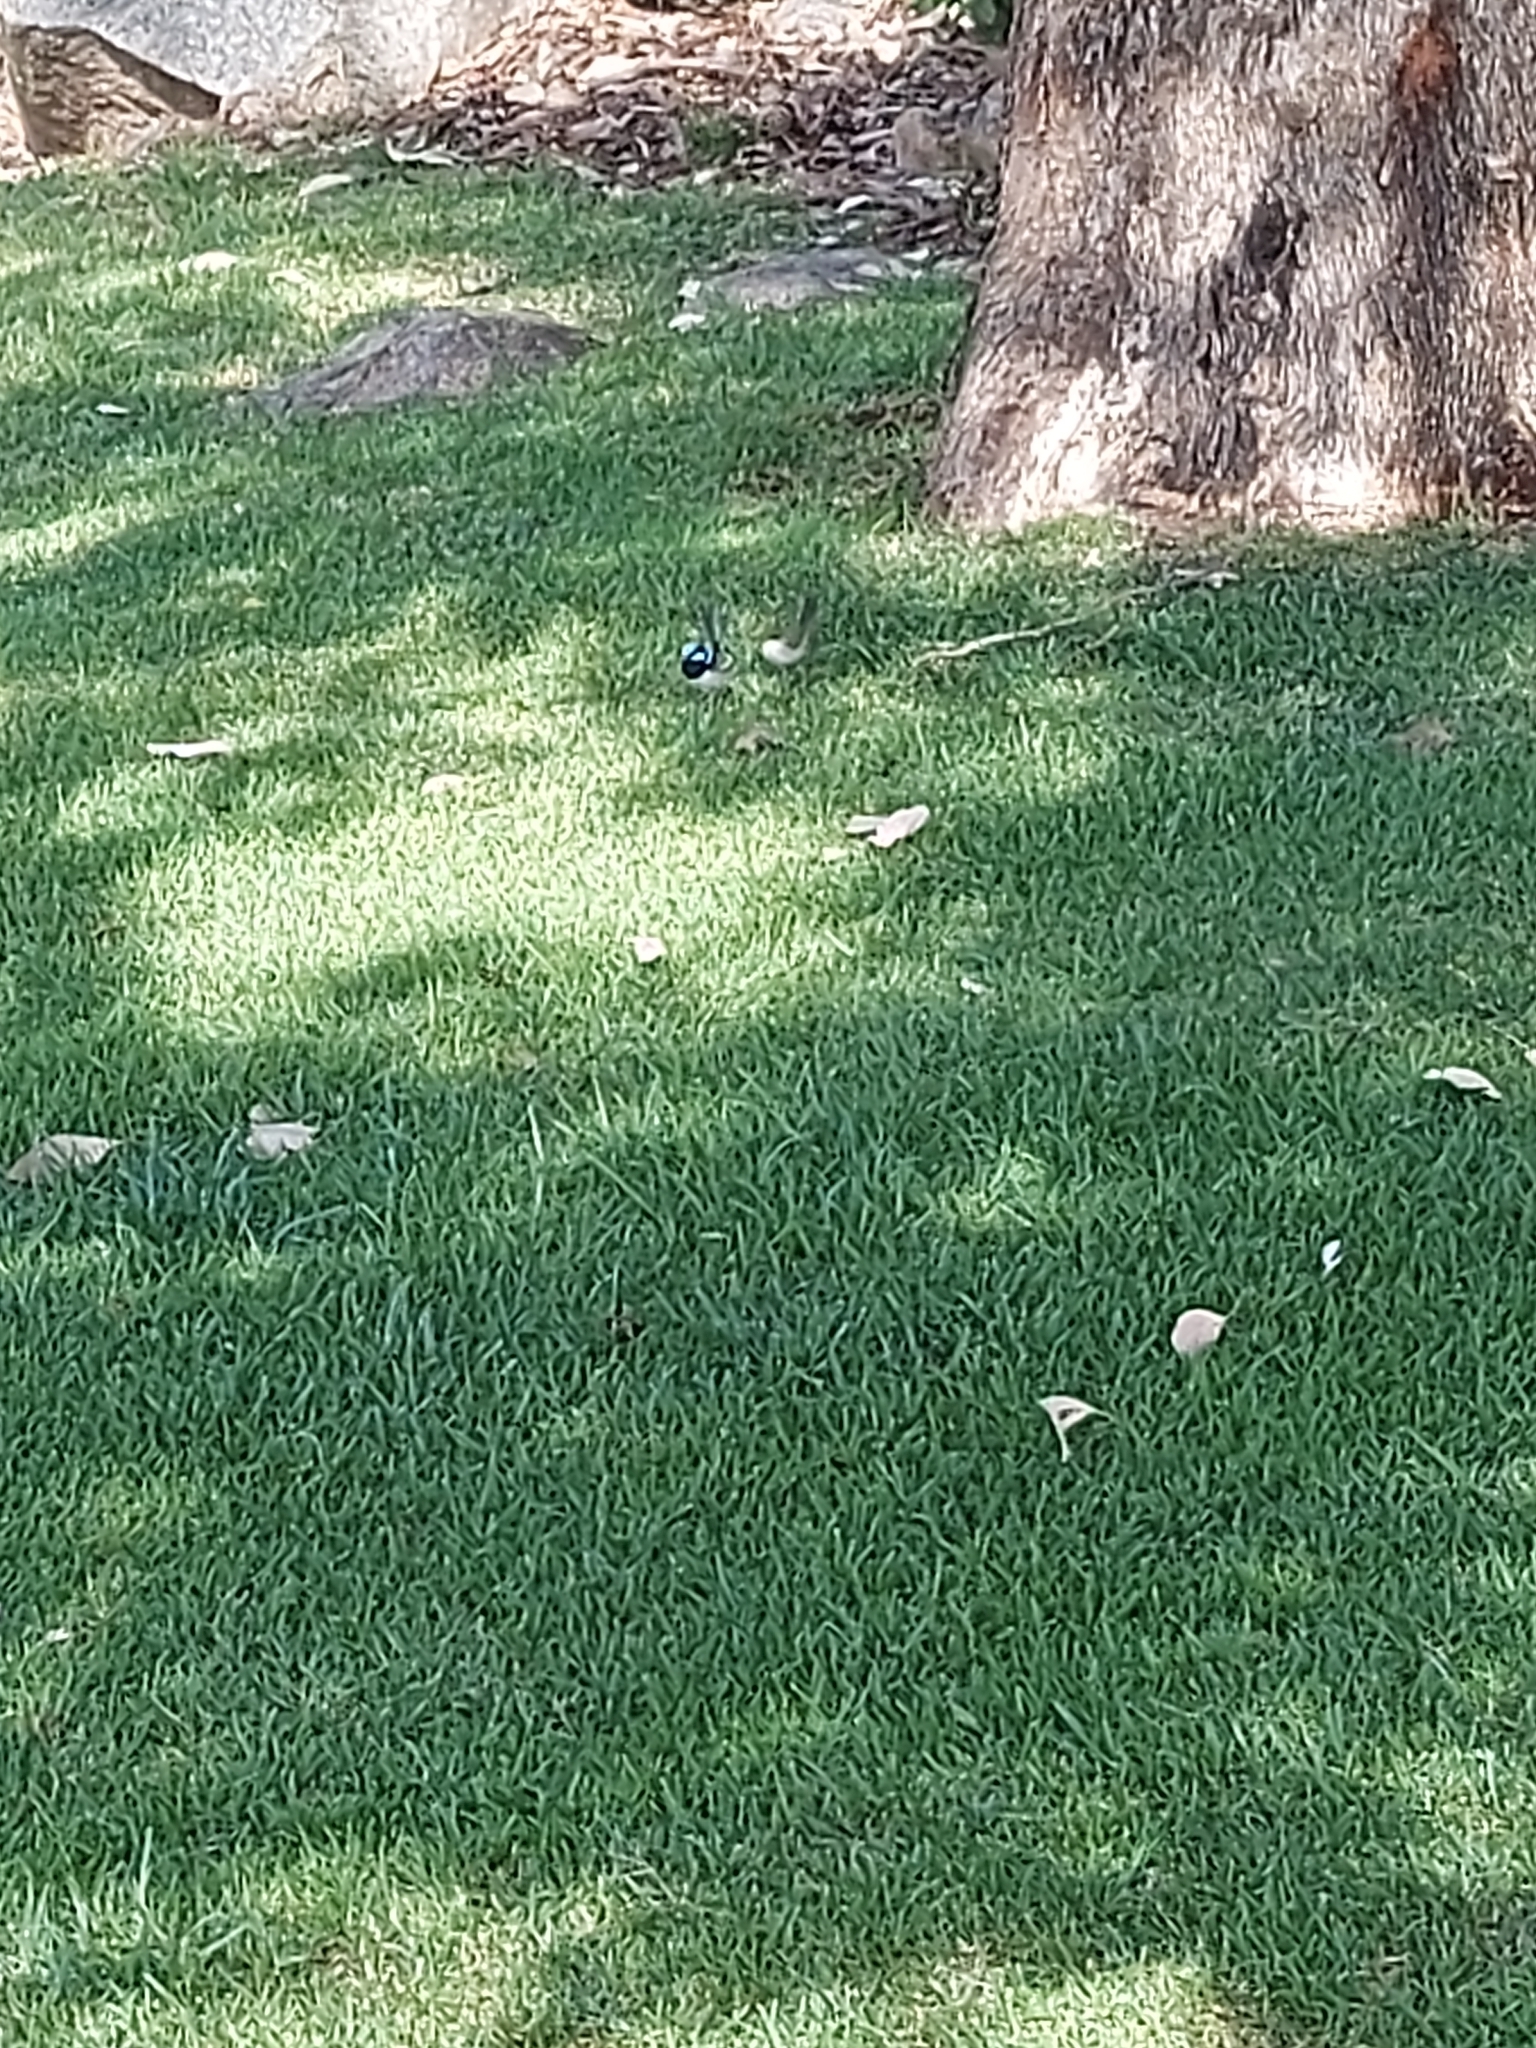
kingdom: Animalia
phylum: Chordata
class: Aves
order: Passeriformes
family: Maluridae
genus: Malurus
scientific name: Malurus cyaneus
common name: Superb fairywren
